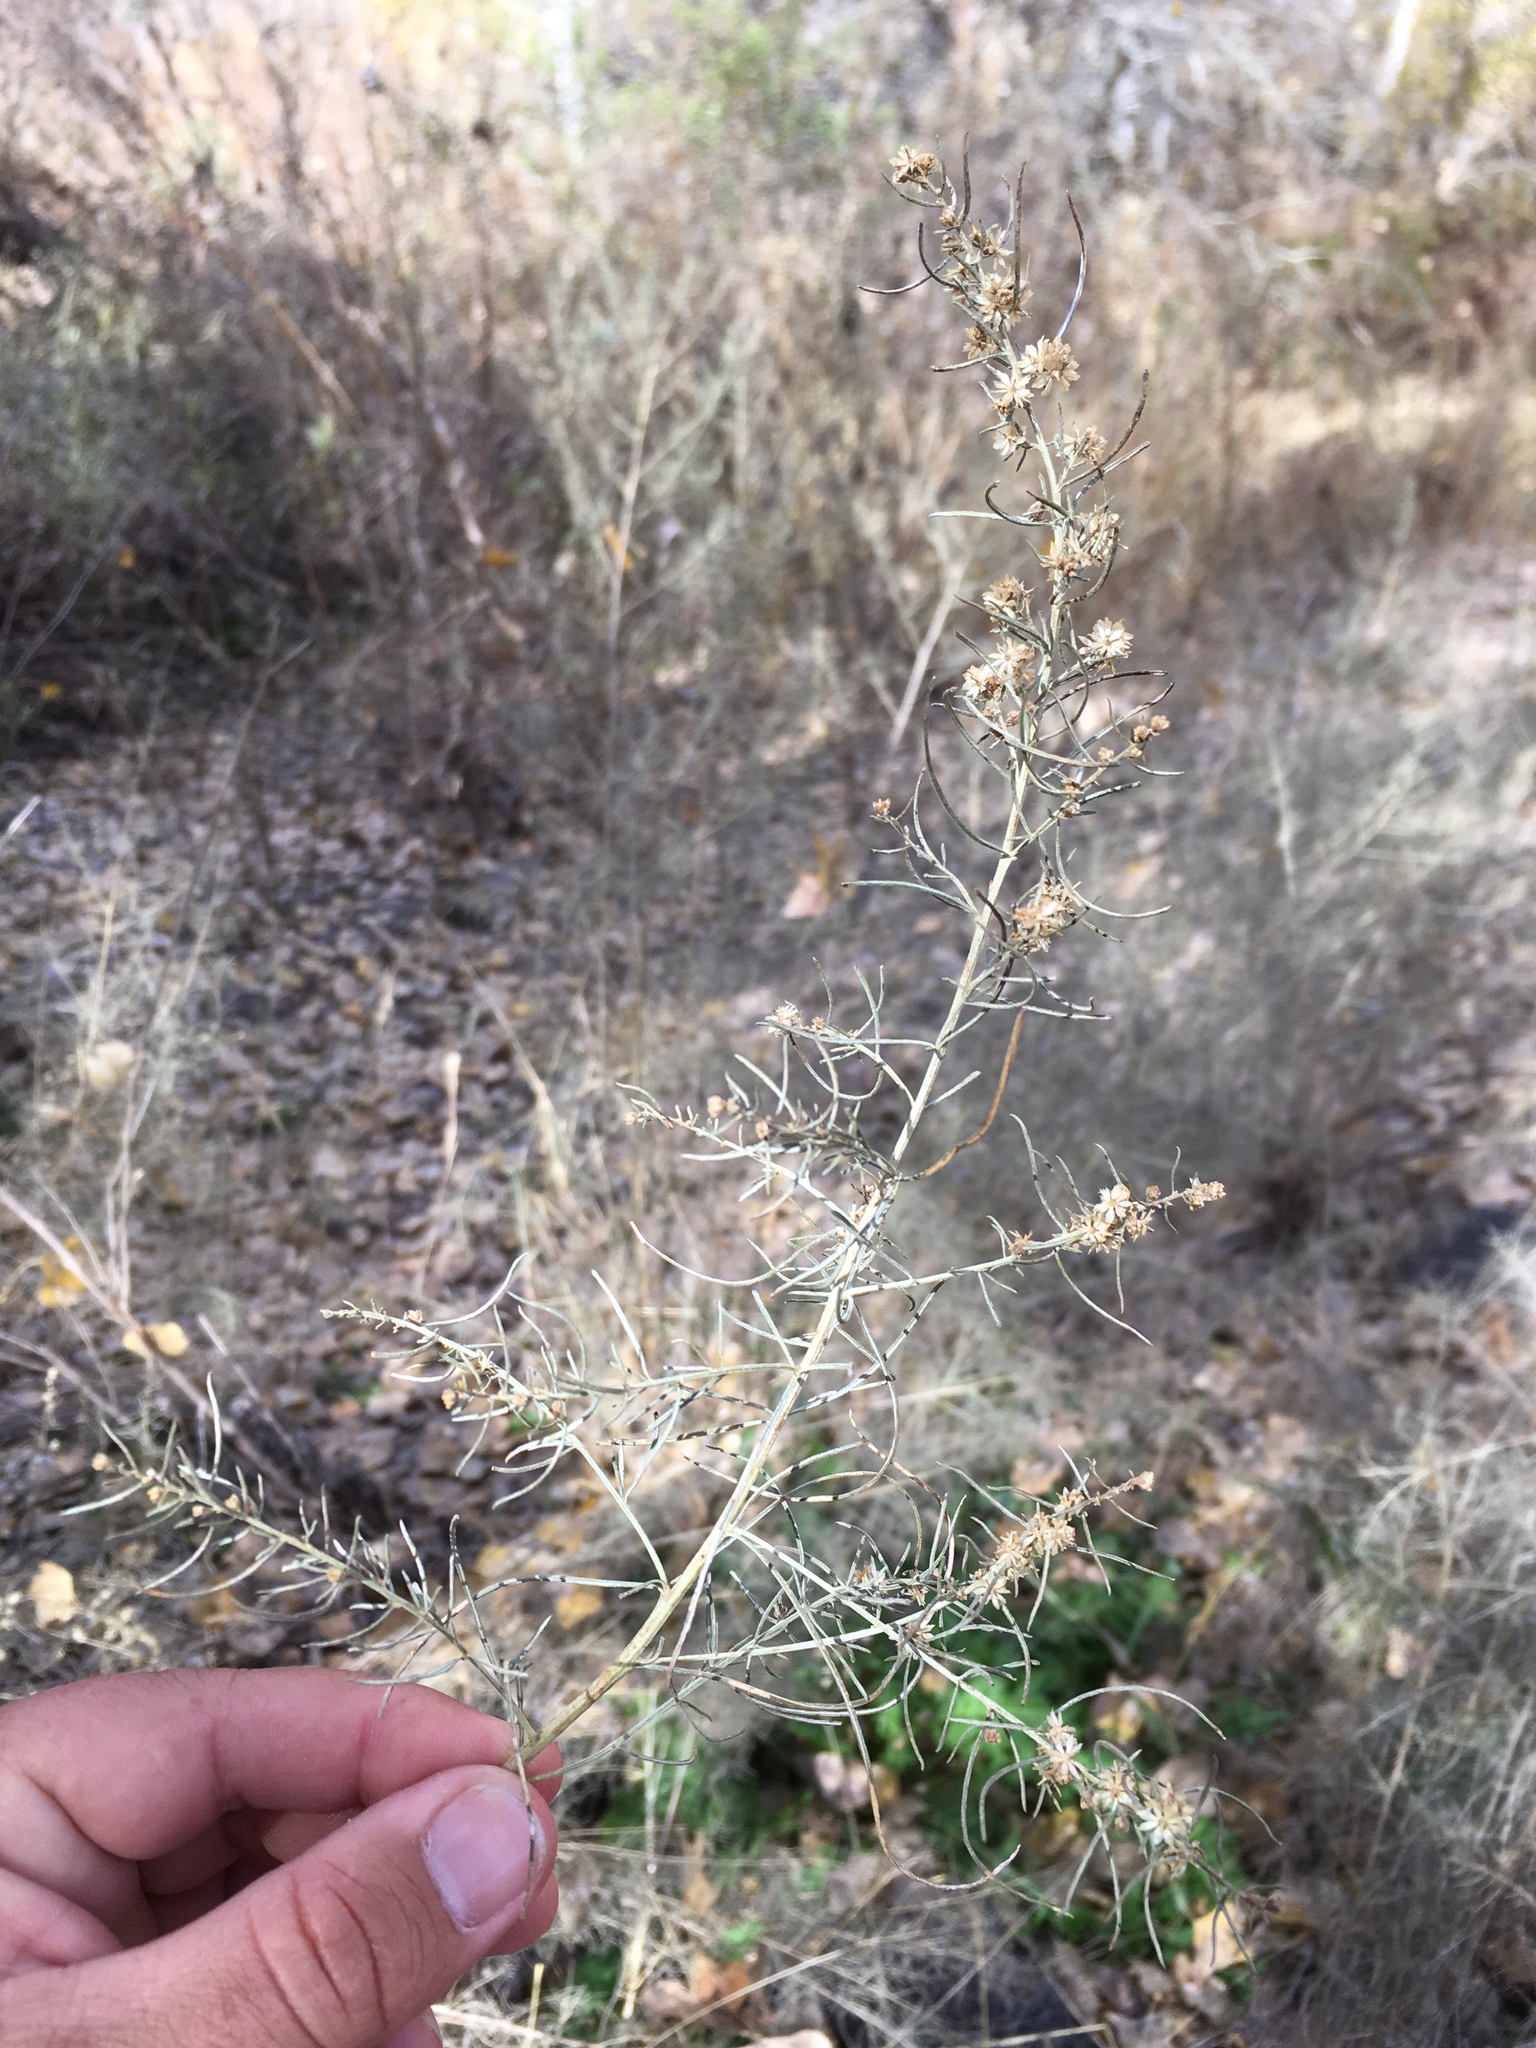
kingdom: Plantae
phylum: Tracheophyta
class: Magnoliopsida
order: Asterales
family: Asteraceae
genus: Ambrosia
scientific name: Ambrosia monogyra
